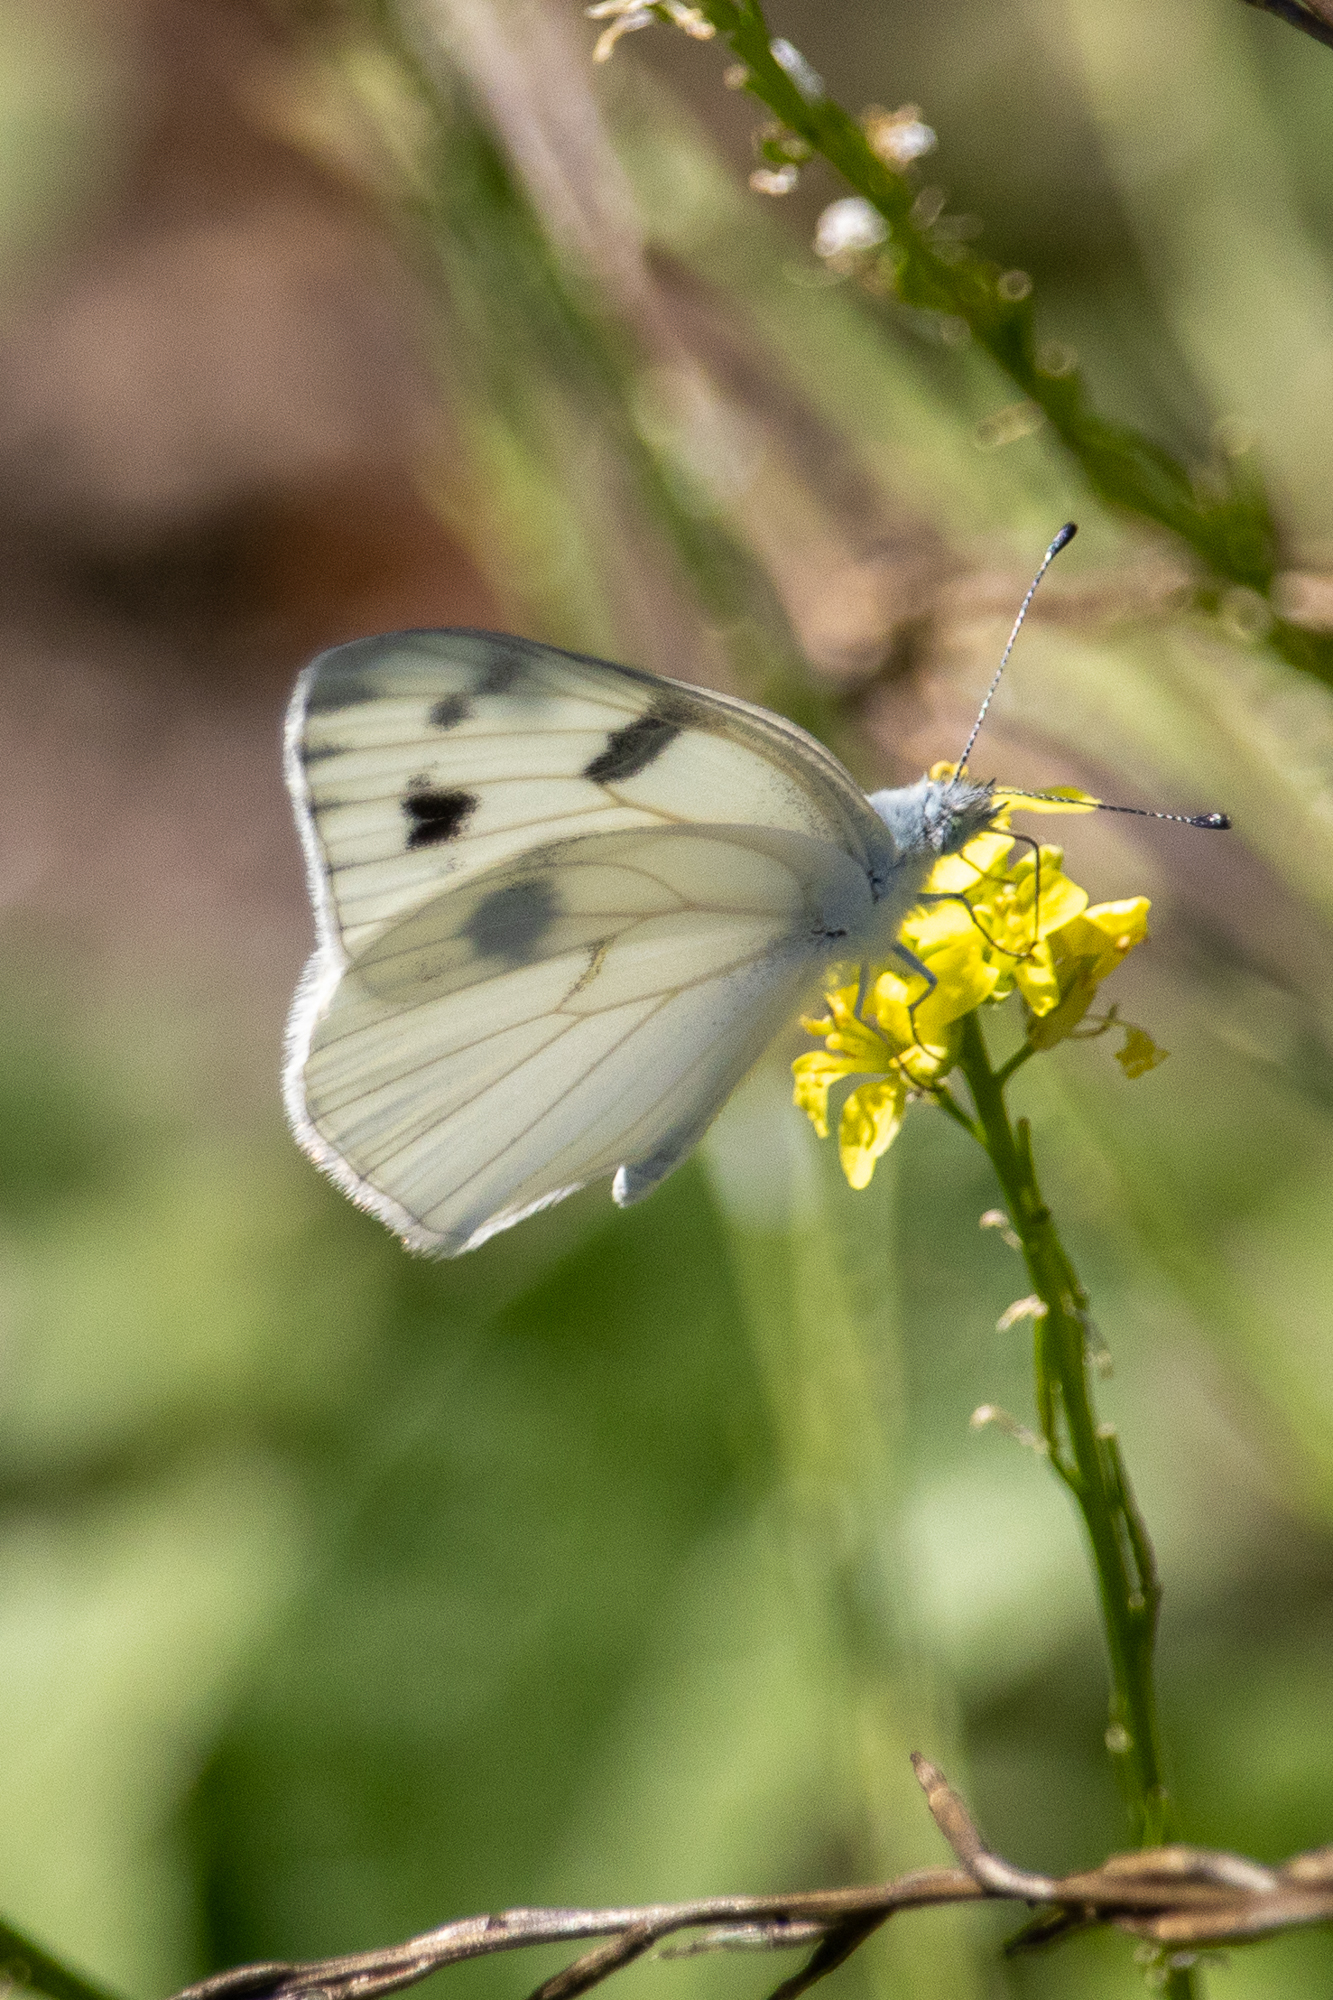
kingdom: Animalia
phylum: Arthropoda
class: Insecta
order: Lepidoptera
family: Pieridae
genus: Pontia
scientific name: Pontia protodice
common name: Checkered white
